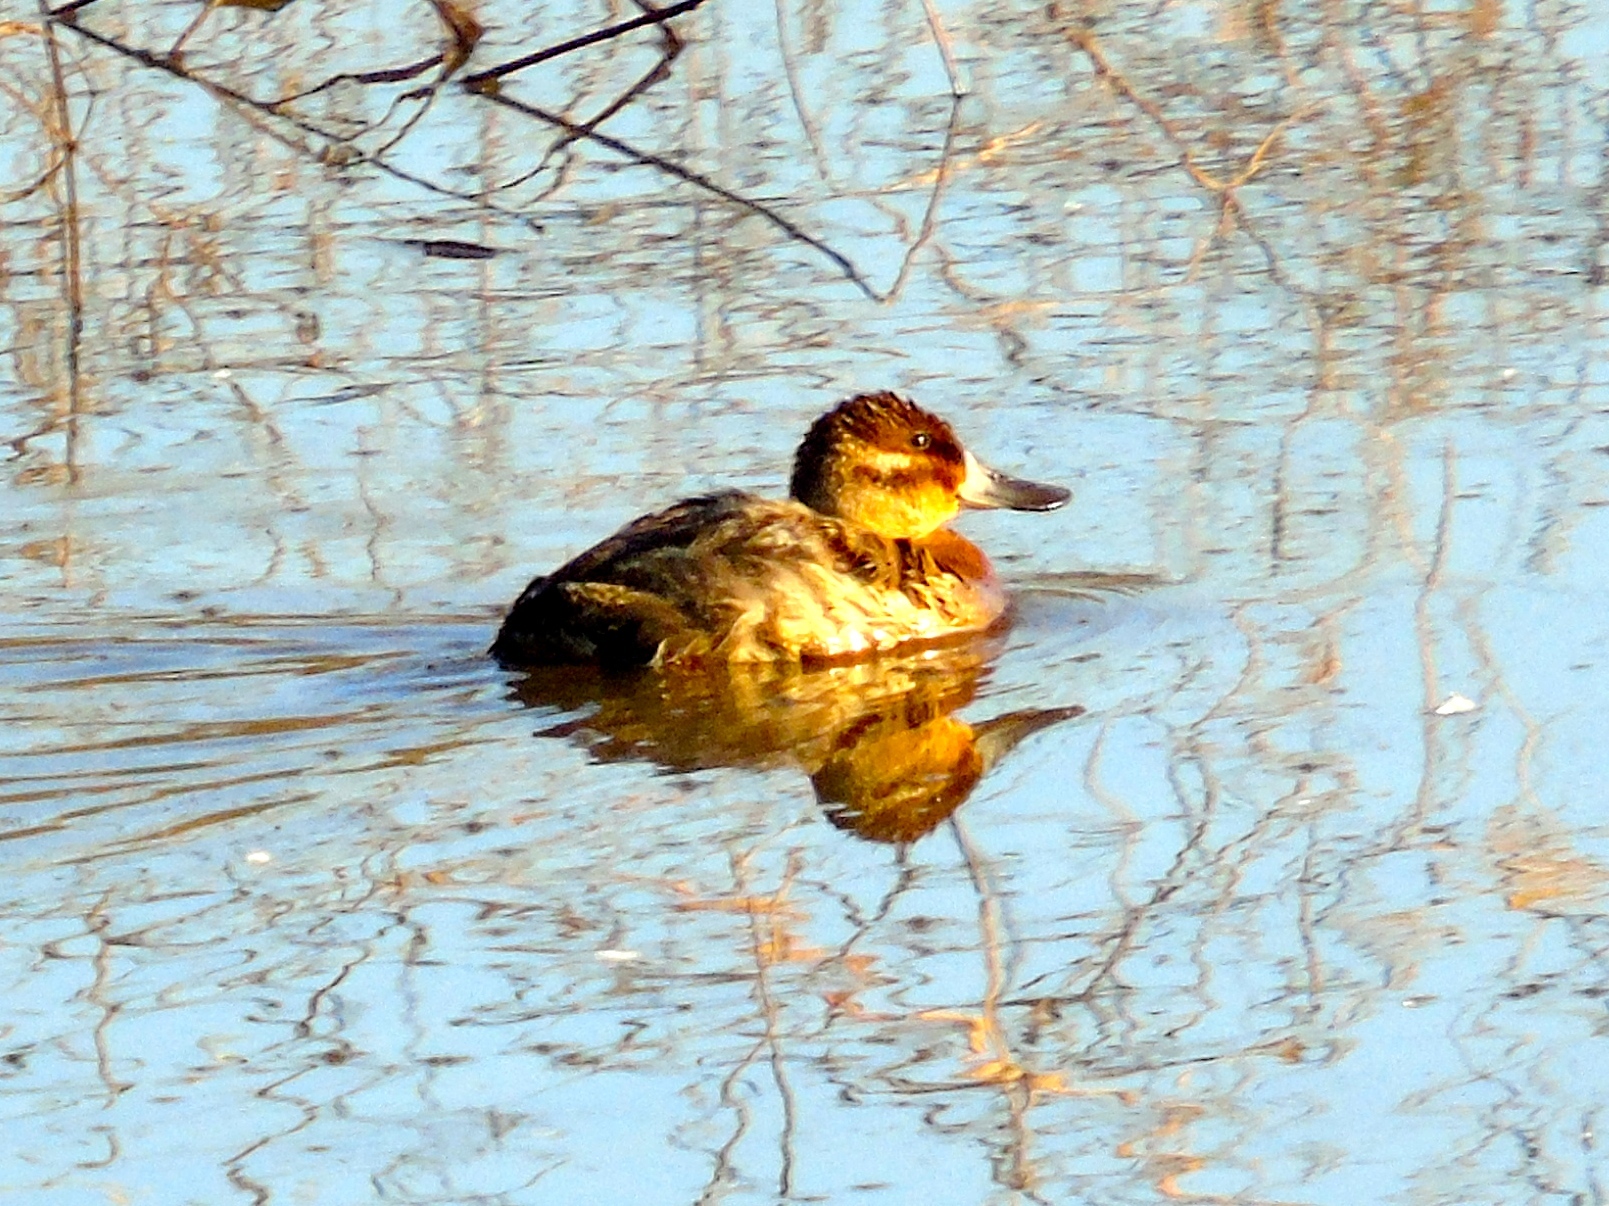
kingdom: Animalia
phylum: Chordata
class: Aves
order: Anseriformes
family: Anatidae
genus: Oxyura
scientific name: Oxyura jamaicensis
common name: Ruddy duck
